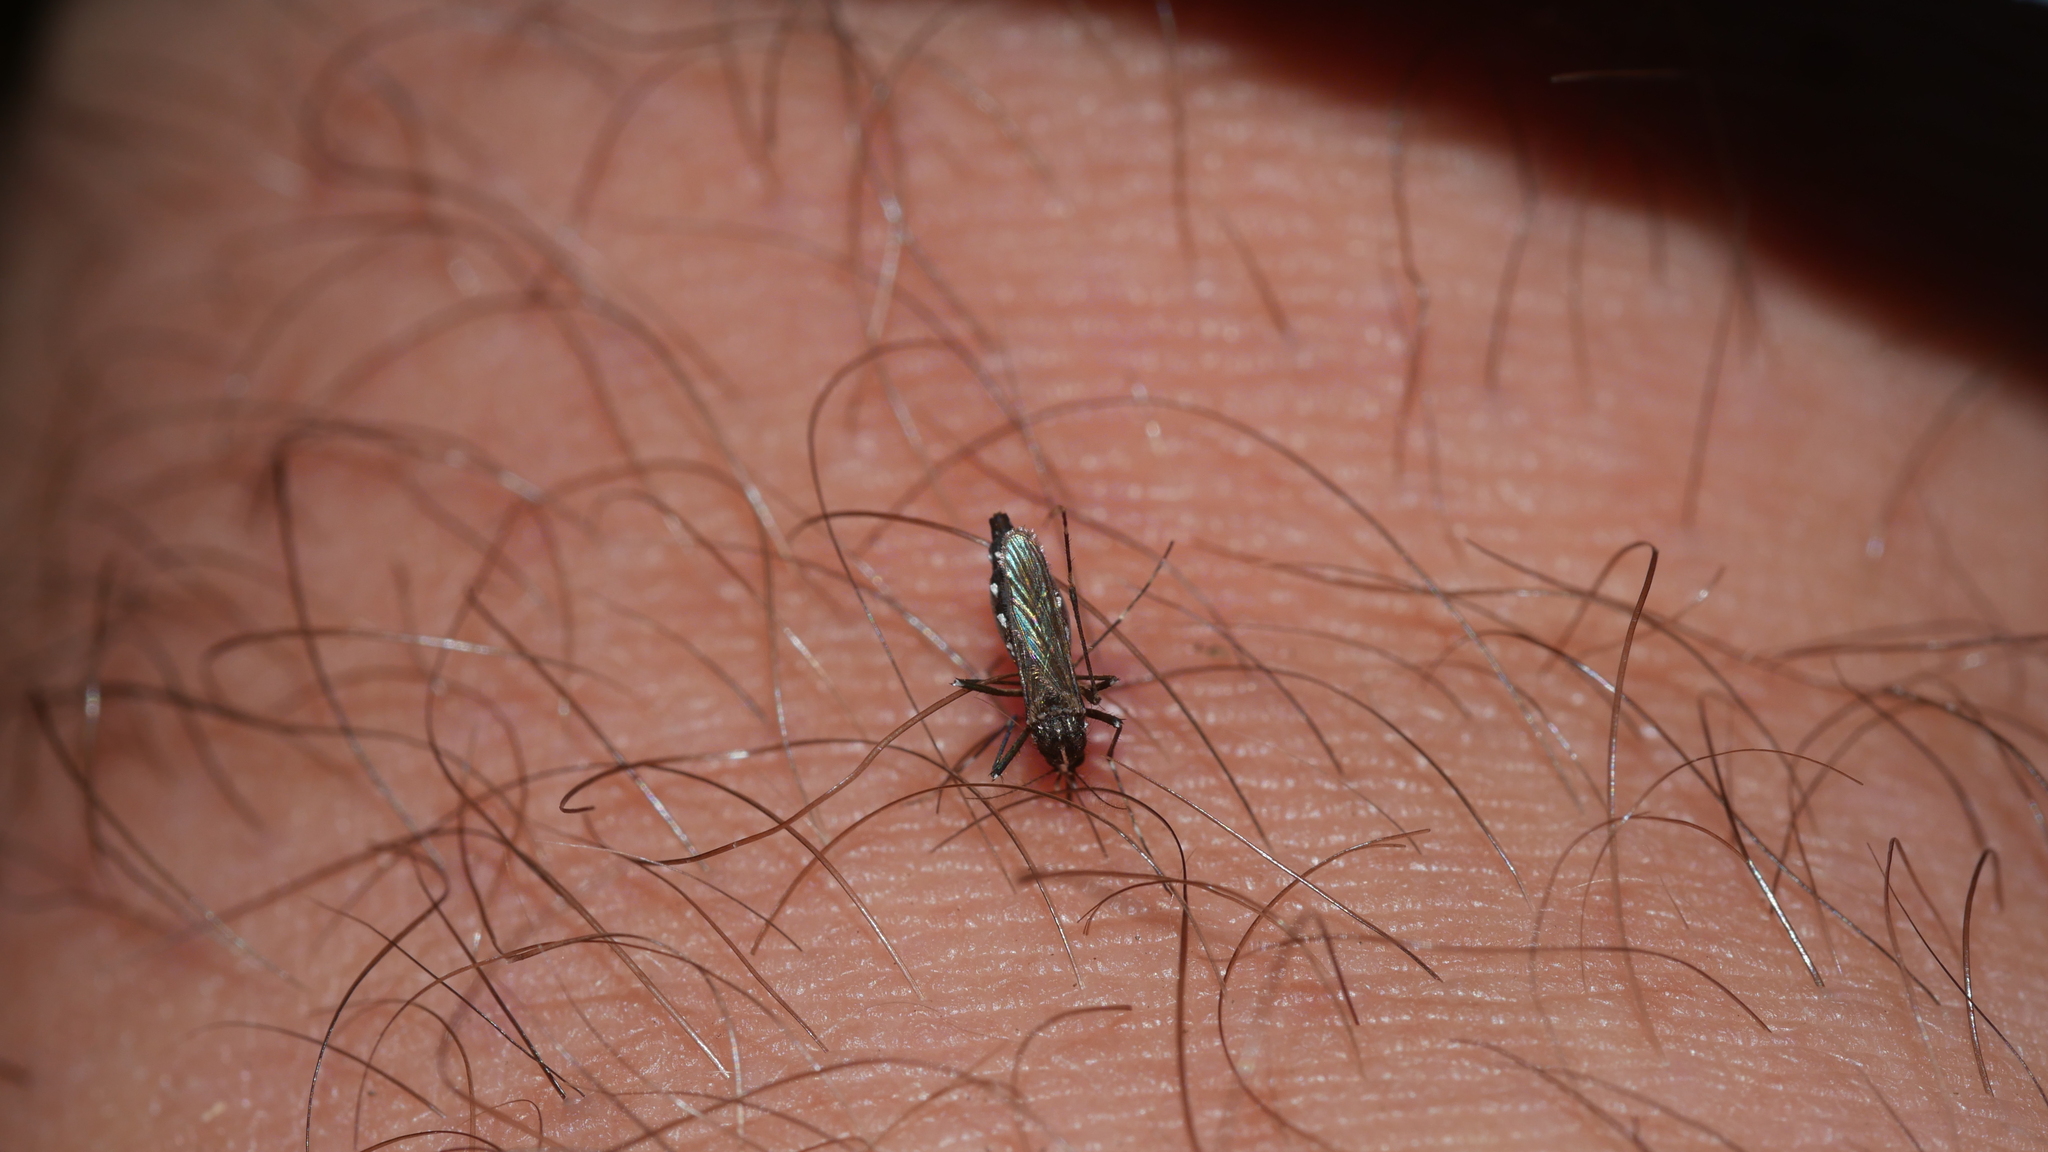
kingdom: Animalia
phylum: Arthropoda
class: Insecta
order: Diptera
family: Culicidae
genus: Aedes
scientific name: Aedes albopictus
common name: Tiger mosquito
